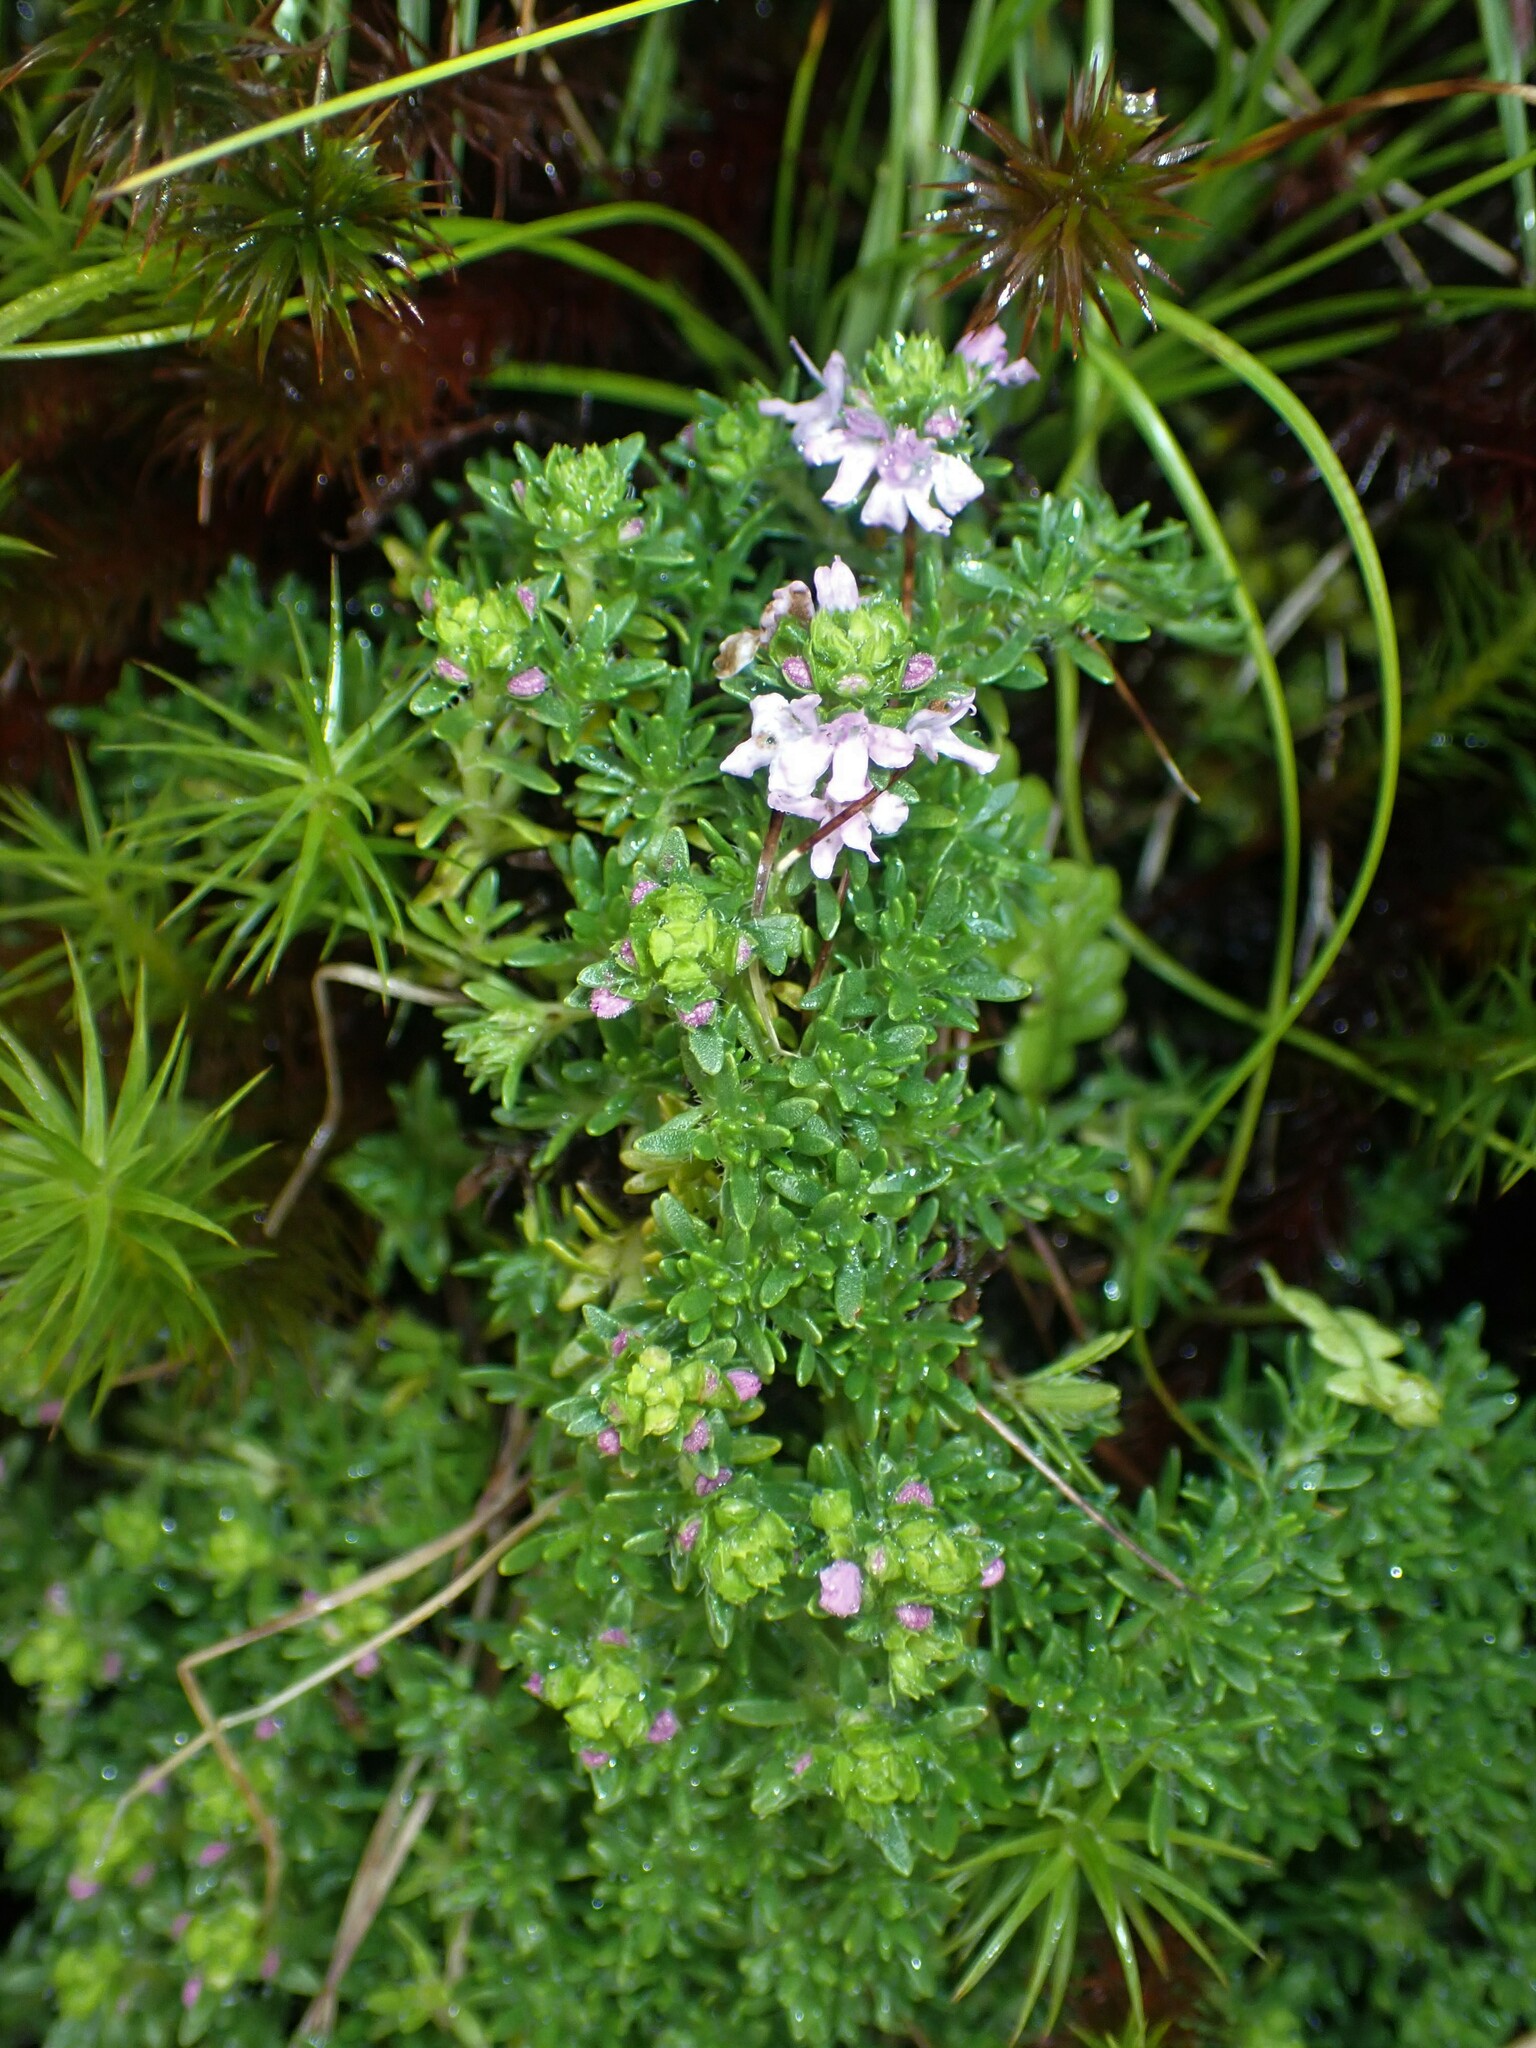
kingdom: Plantae
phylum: Tracheophyta
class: Magnoliopsida
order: Lamiales
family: Lamiaceae
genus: Thymus
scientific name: Thymus caespititius
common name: Azores thyme
